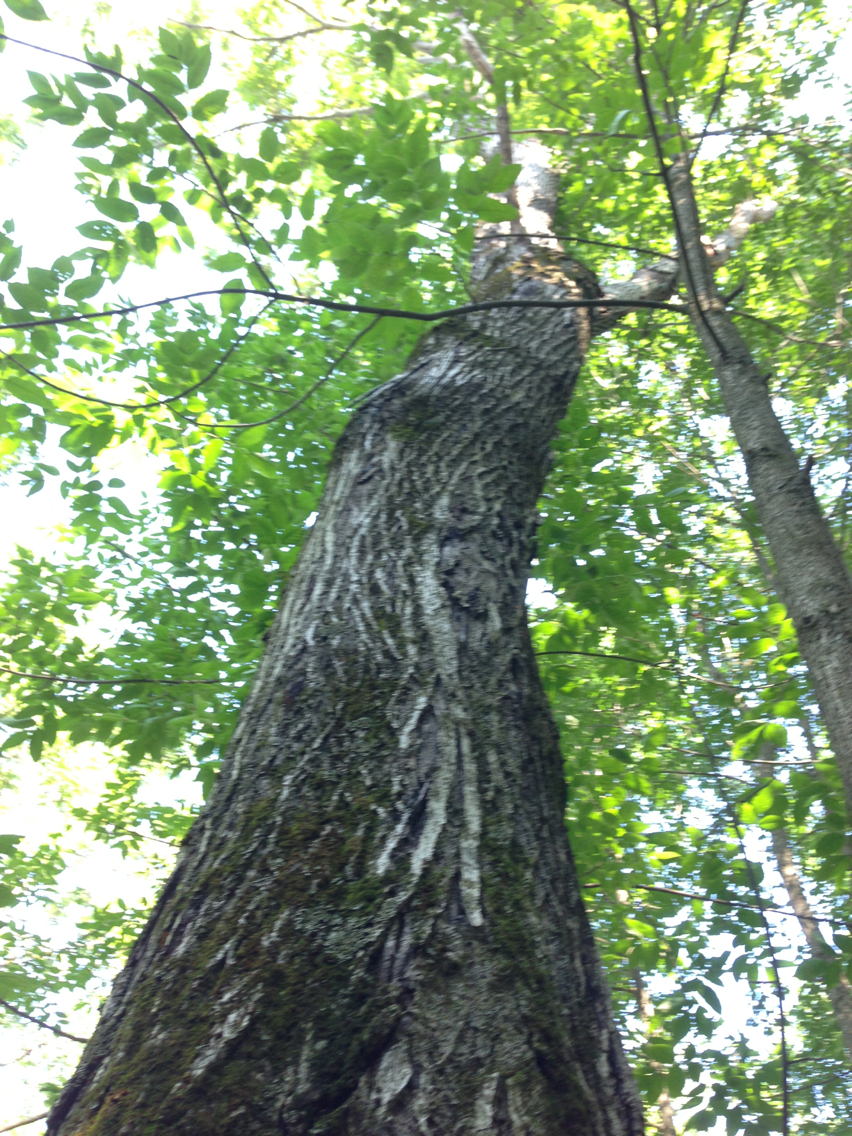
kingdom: Plantae
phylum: Tracheophyta
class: Magnoliopsida
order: Fagales
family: Juglandaceae
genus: Juglans
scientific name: Juglans cinerea
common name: Butternut
